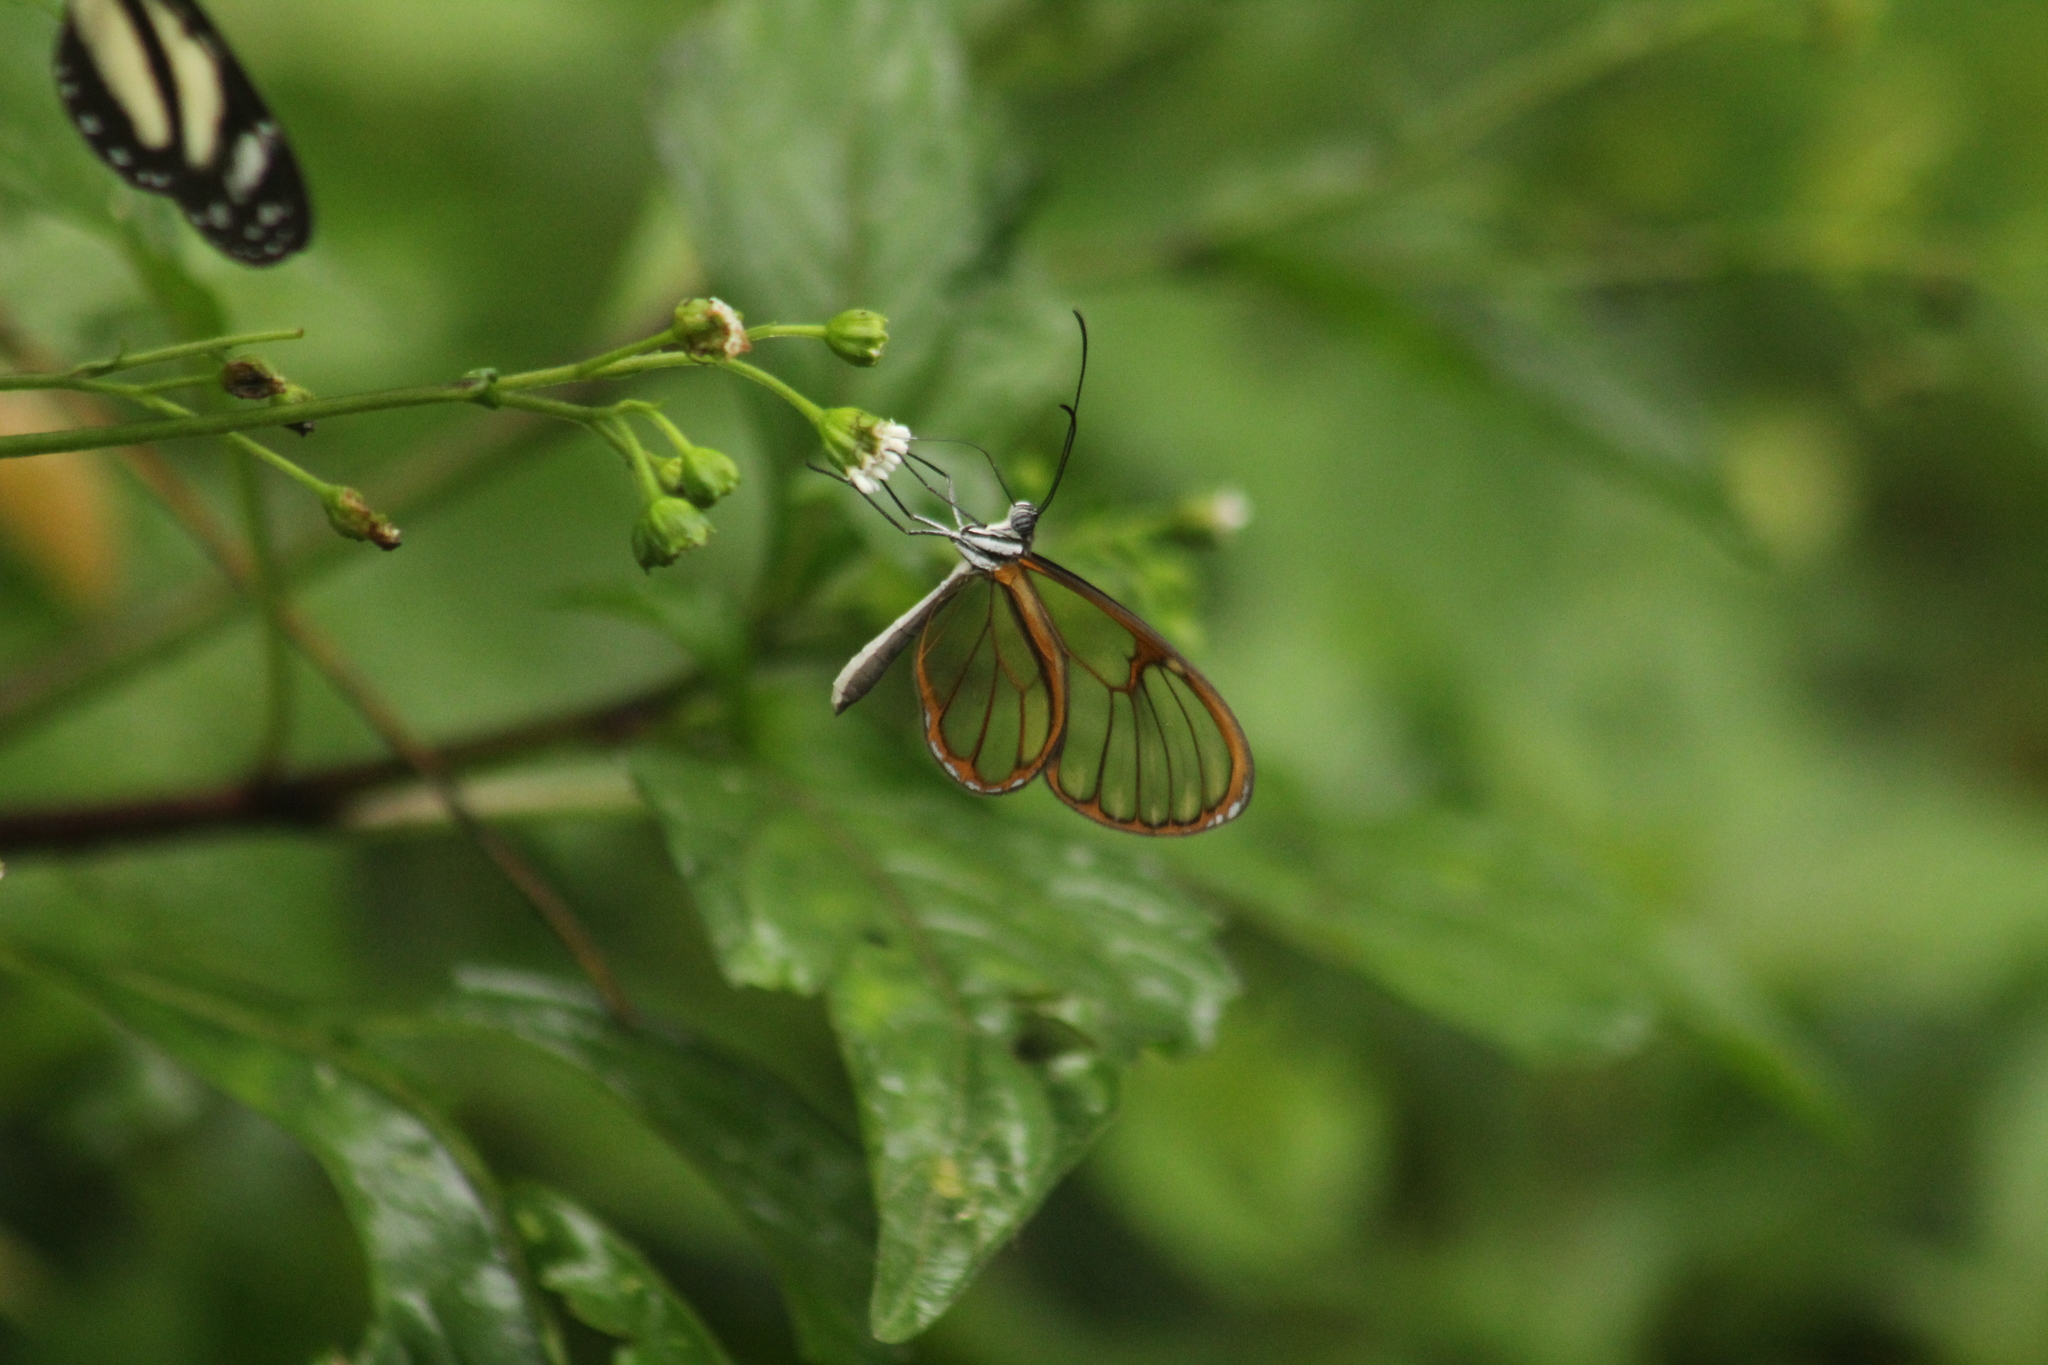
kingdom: Animalia
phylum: Arthropoda
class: Insecta
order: Lepidoptera
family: Nymphalidae
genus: Heterosais
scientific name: Heterosais giulia
